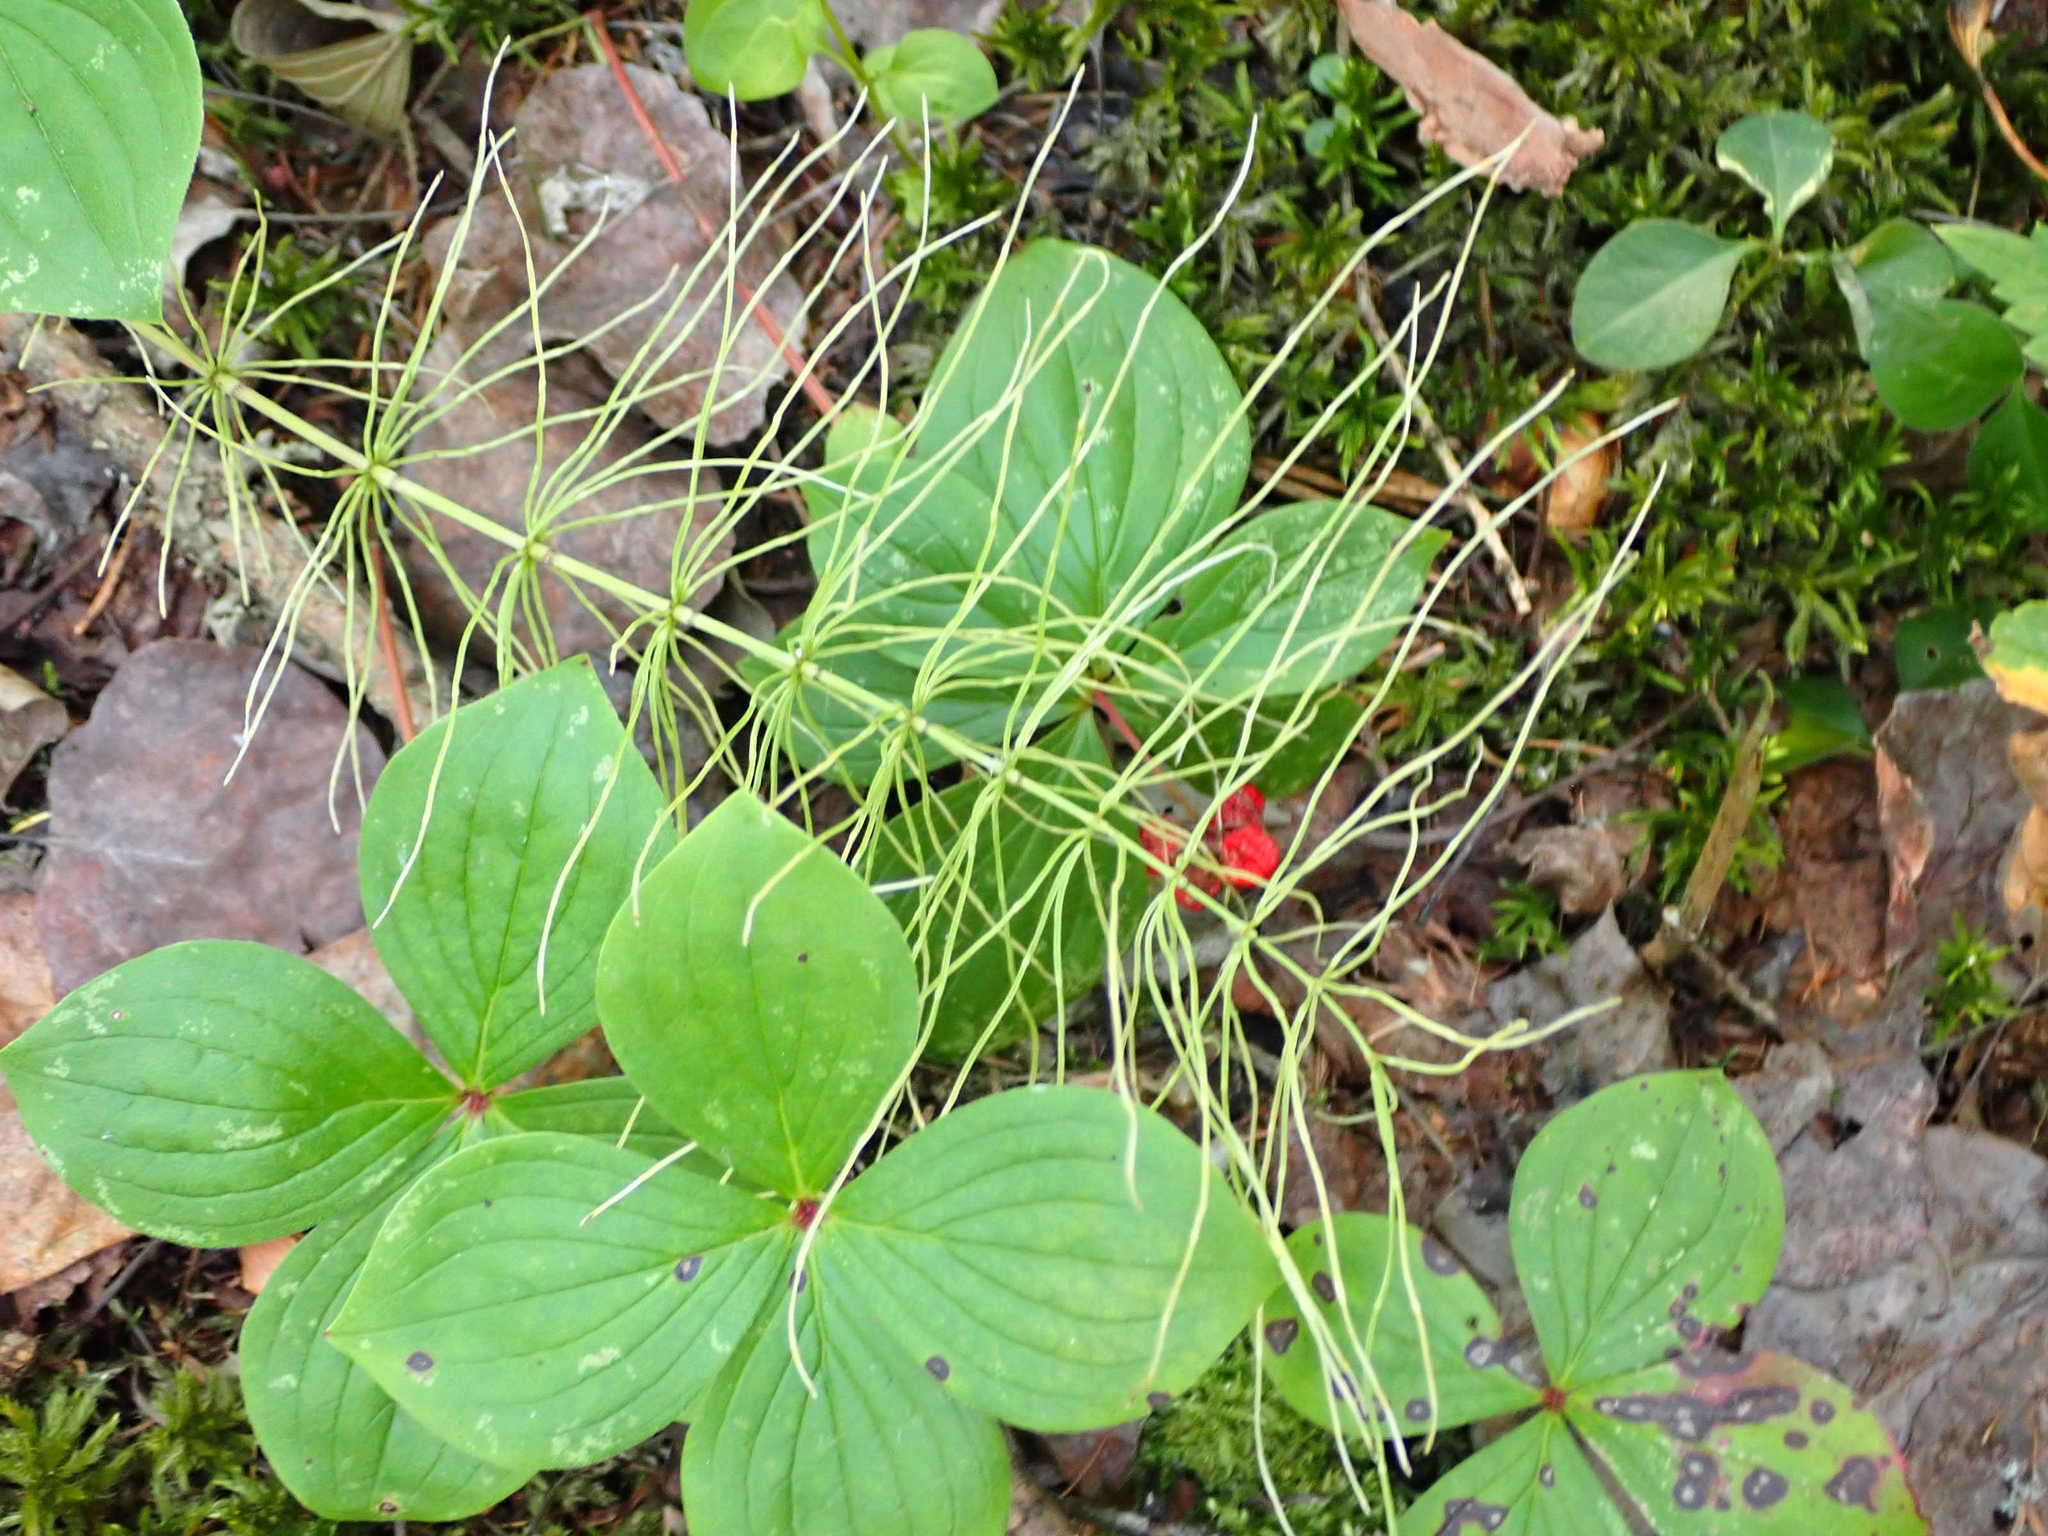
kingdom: Plantae
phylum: Tracheophyta
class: Polypodiopsida
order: Equisetales
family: Equisetaceae
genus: Equisetum
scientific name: Equisetum pratense
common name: Meadow horsetail
